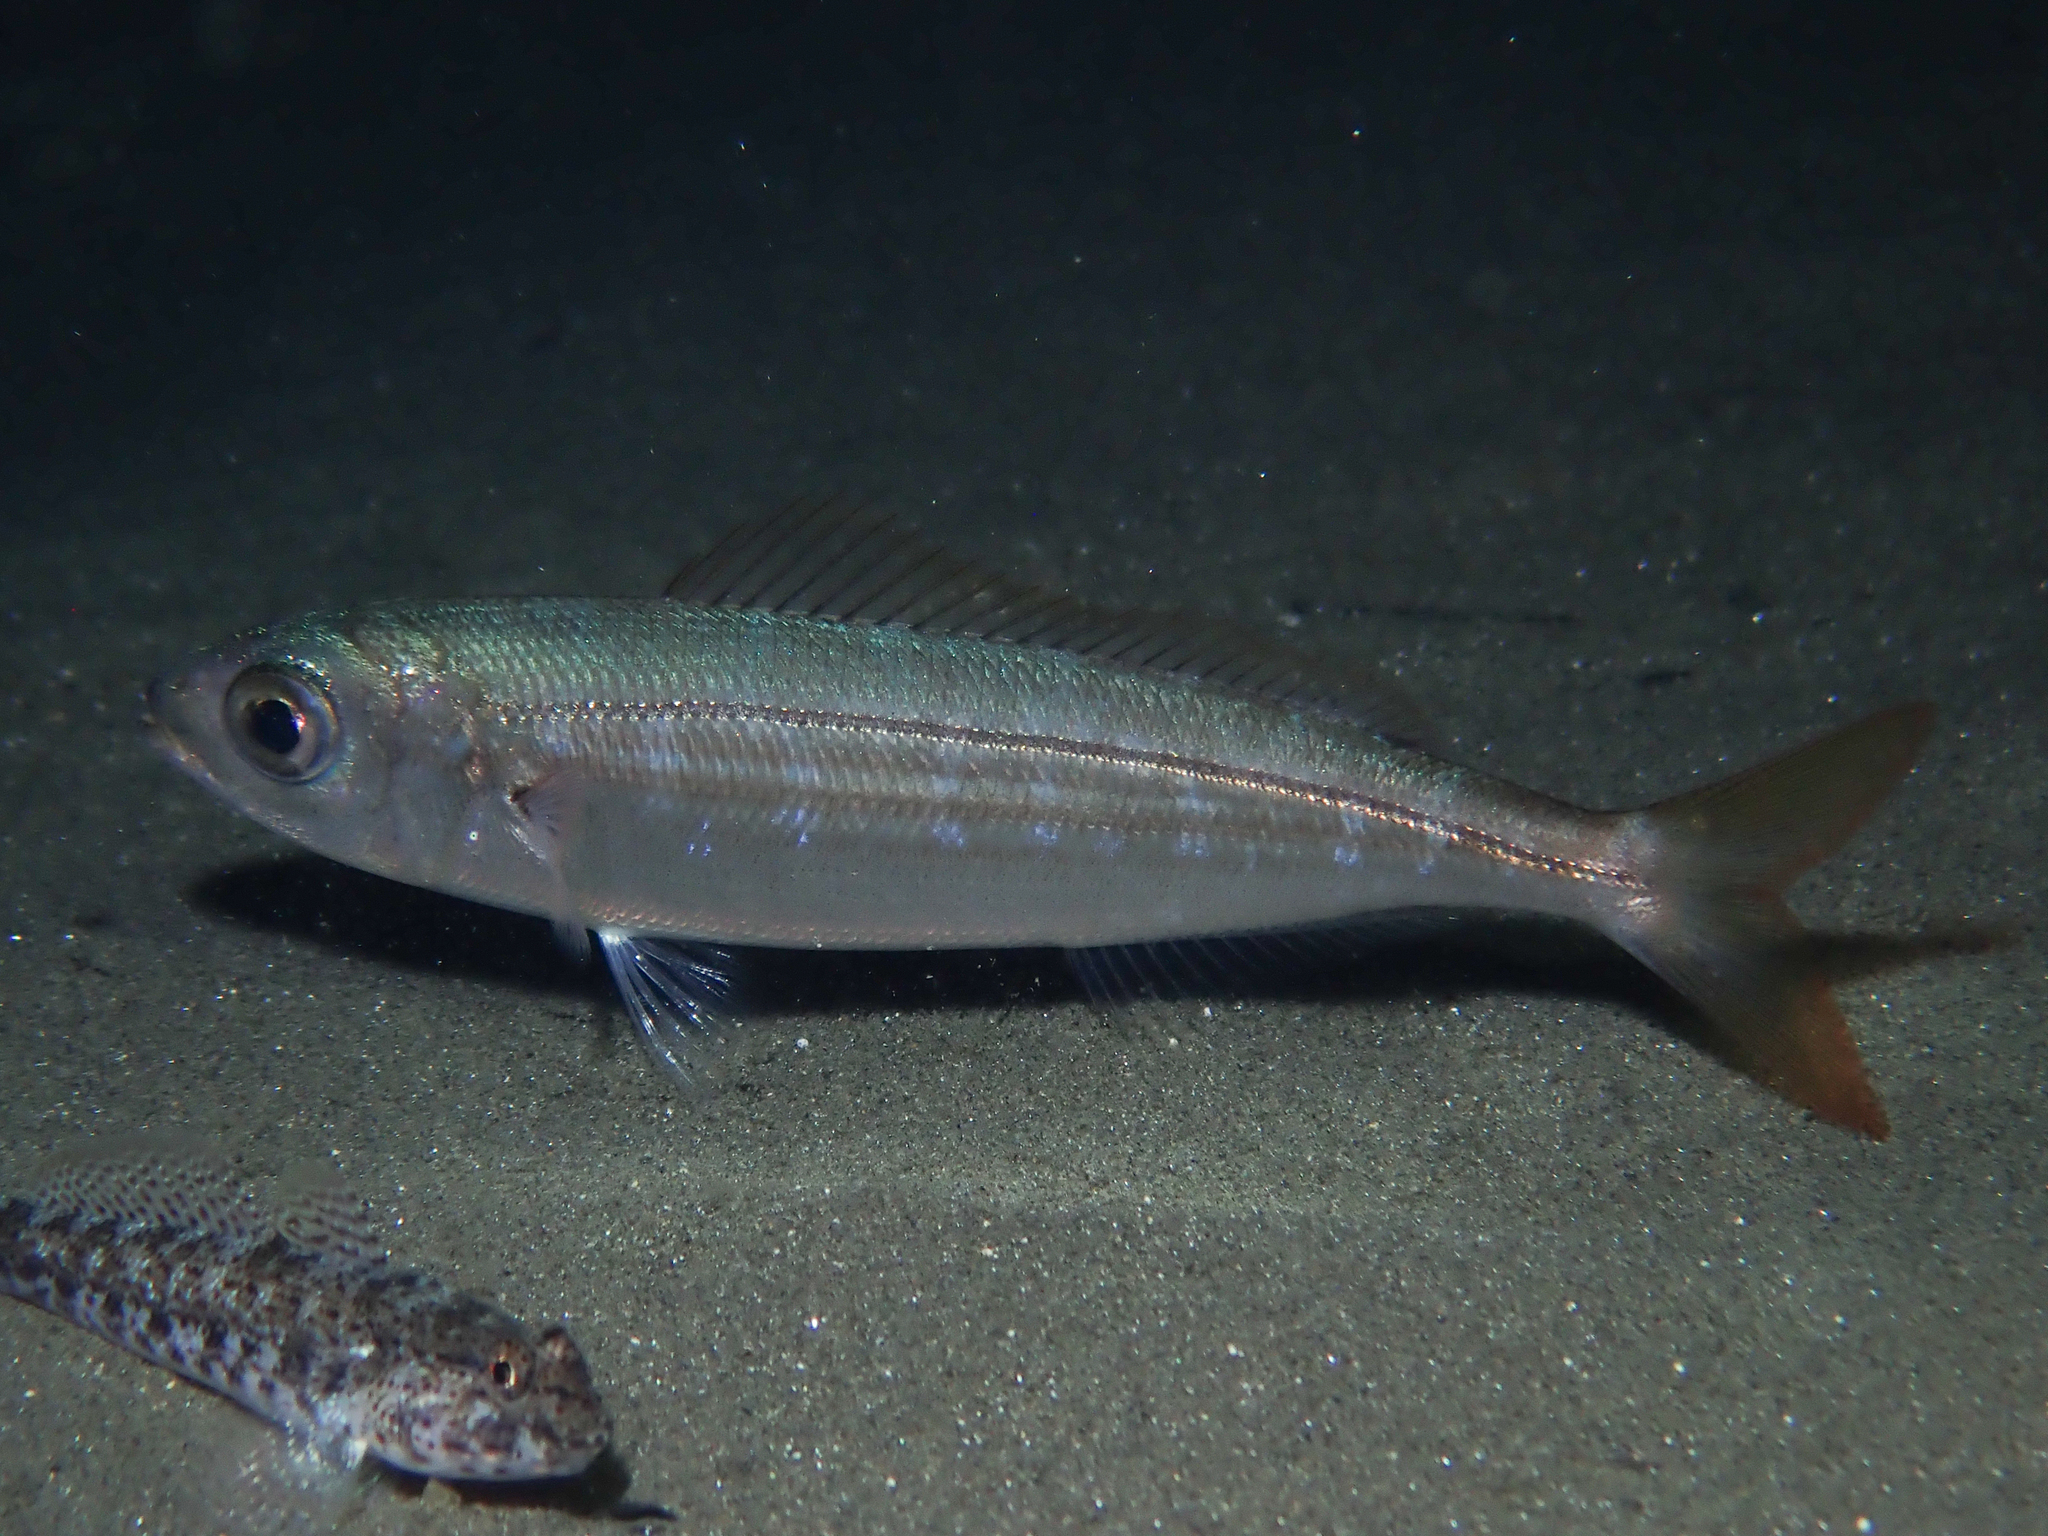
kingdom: Animalia
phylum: Chordata
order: Perciformes
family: Sparidae
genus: Boops
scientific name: Boops boops
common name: Bogue
